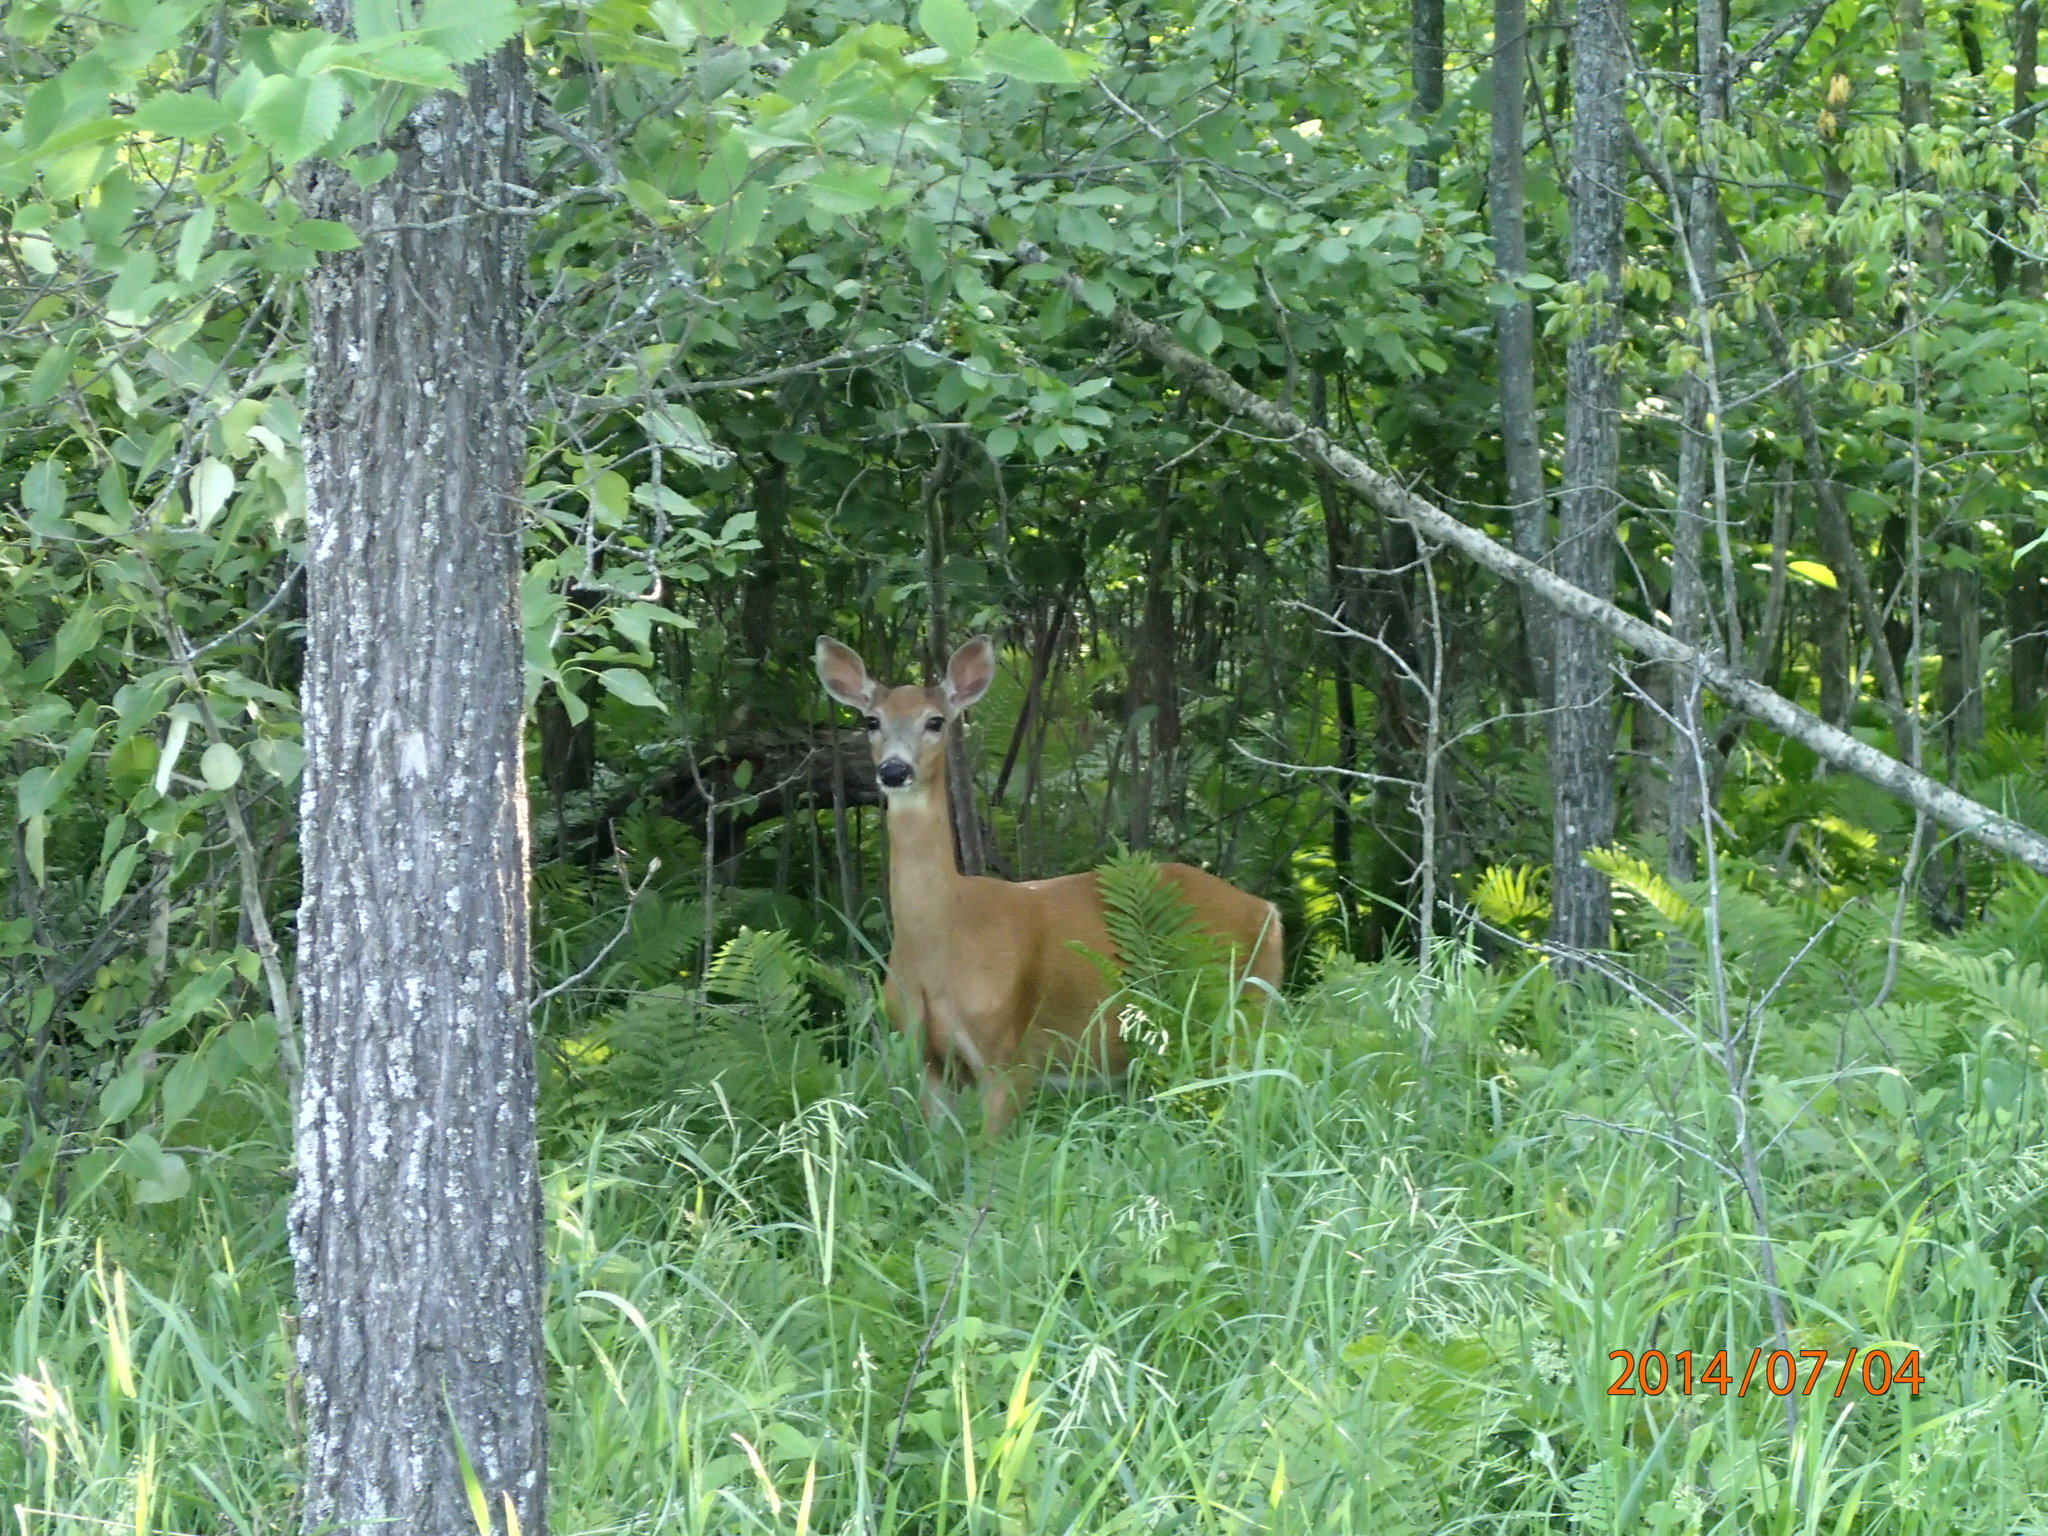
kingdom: Animalia
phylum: Chordata
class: Mammalia
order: Artiodactyla
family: Cervidae
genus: Odocoileus
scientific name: Odocoileus virginianus
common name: White-tailed deer
